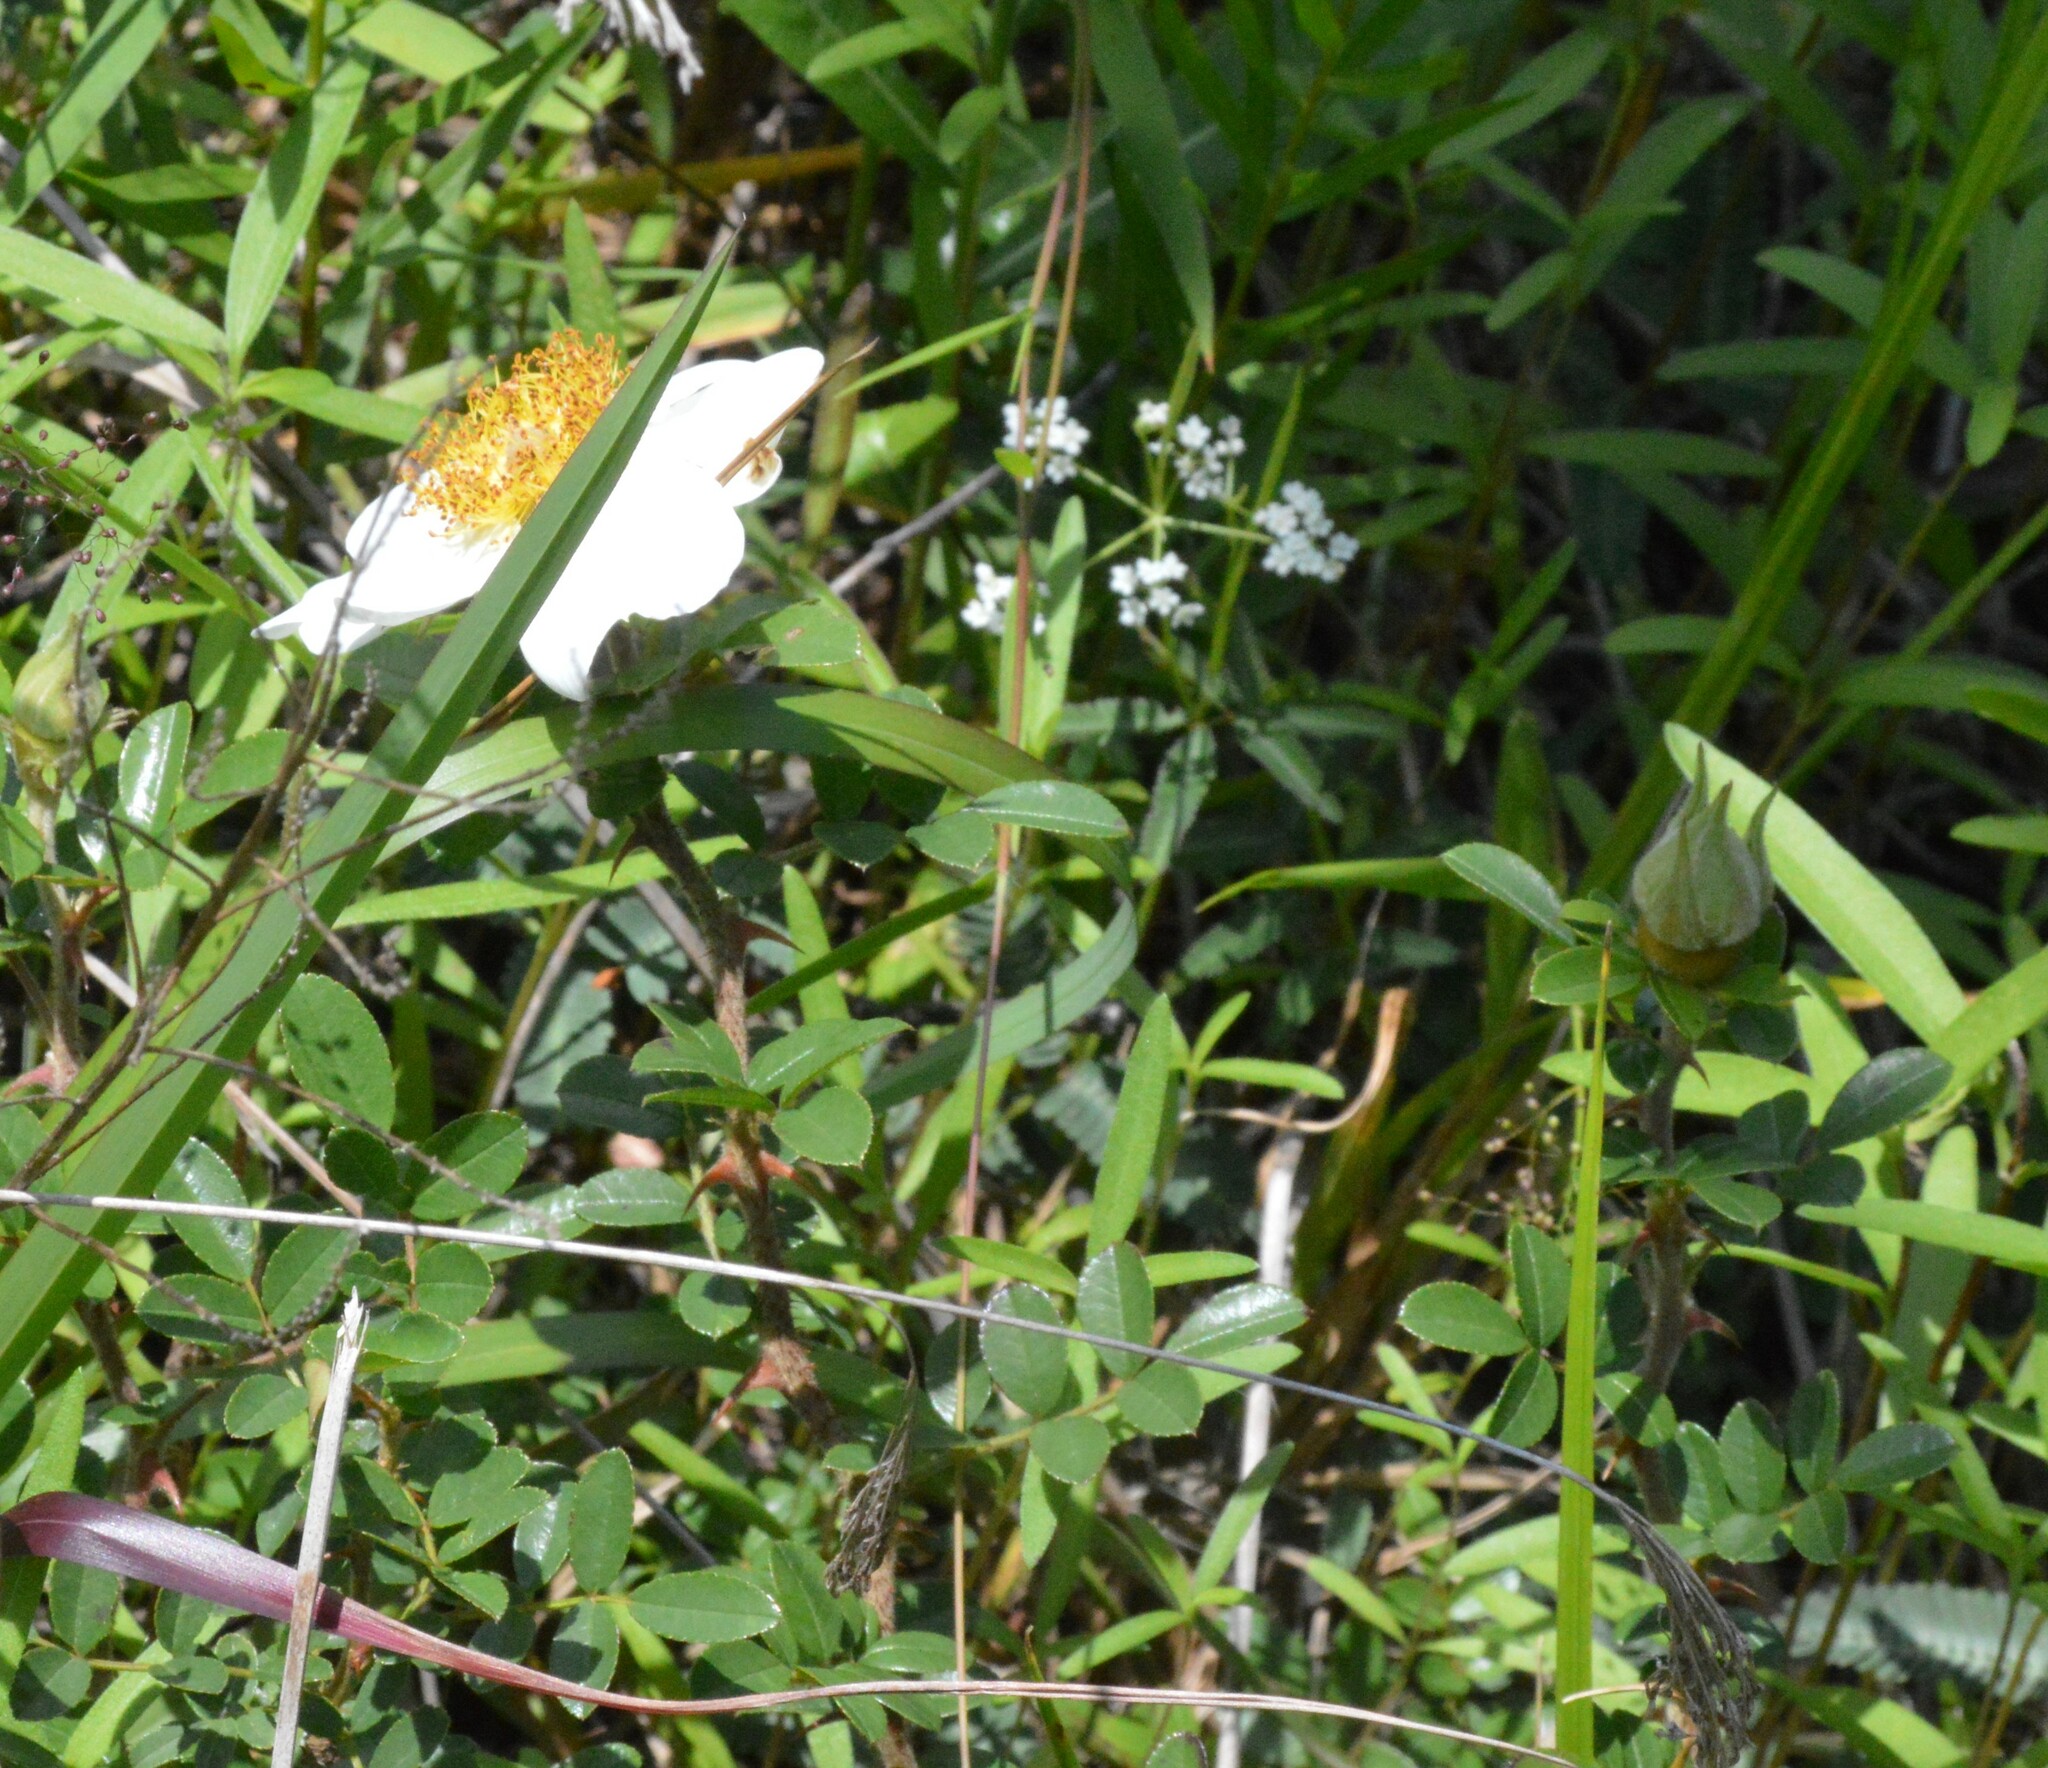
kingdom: Plantae
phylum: Tracheophyta
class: Magnoliopsida
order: Rosales
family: Rosaceae
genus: Rosa
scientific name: Rosa bracteata
